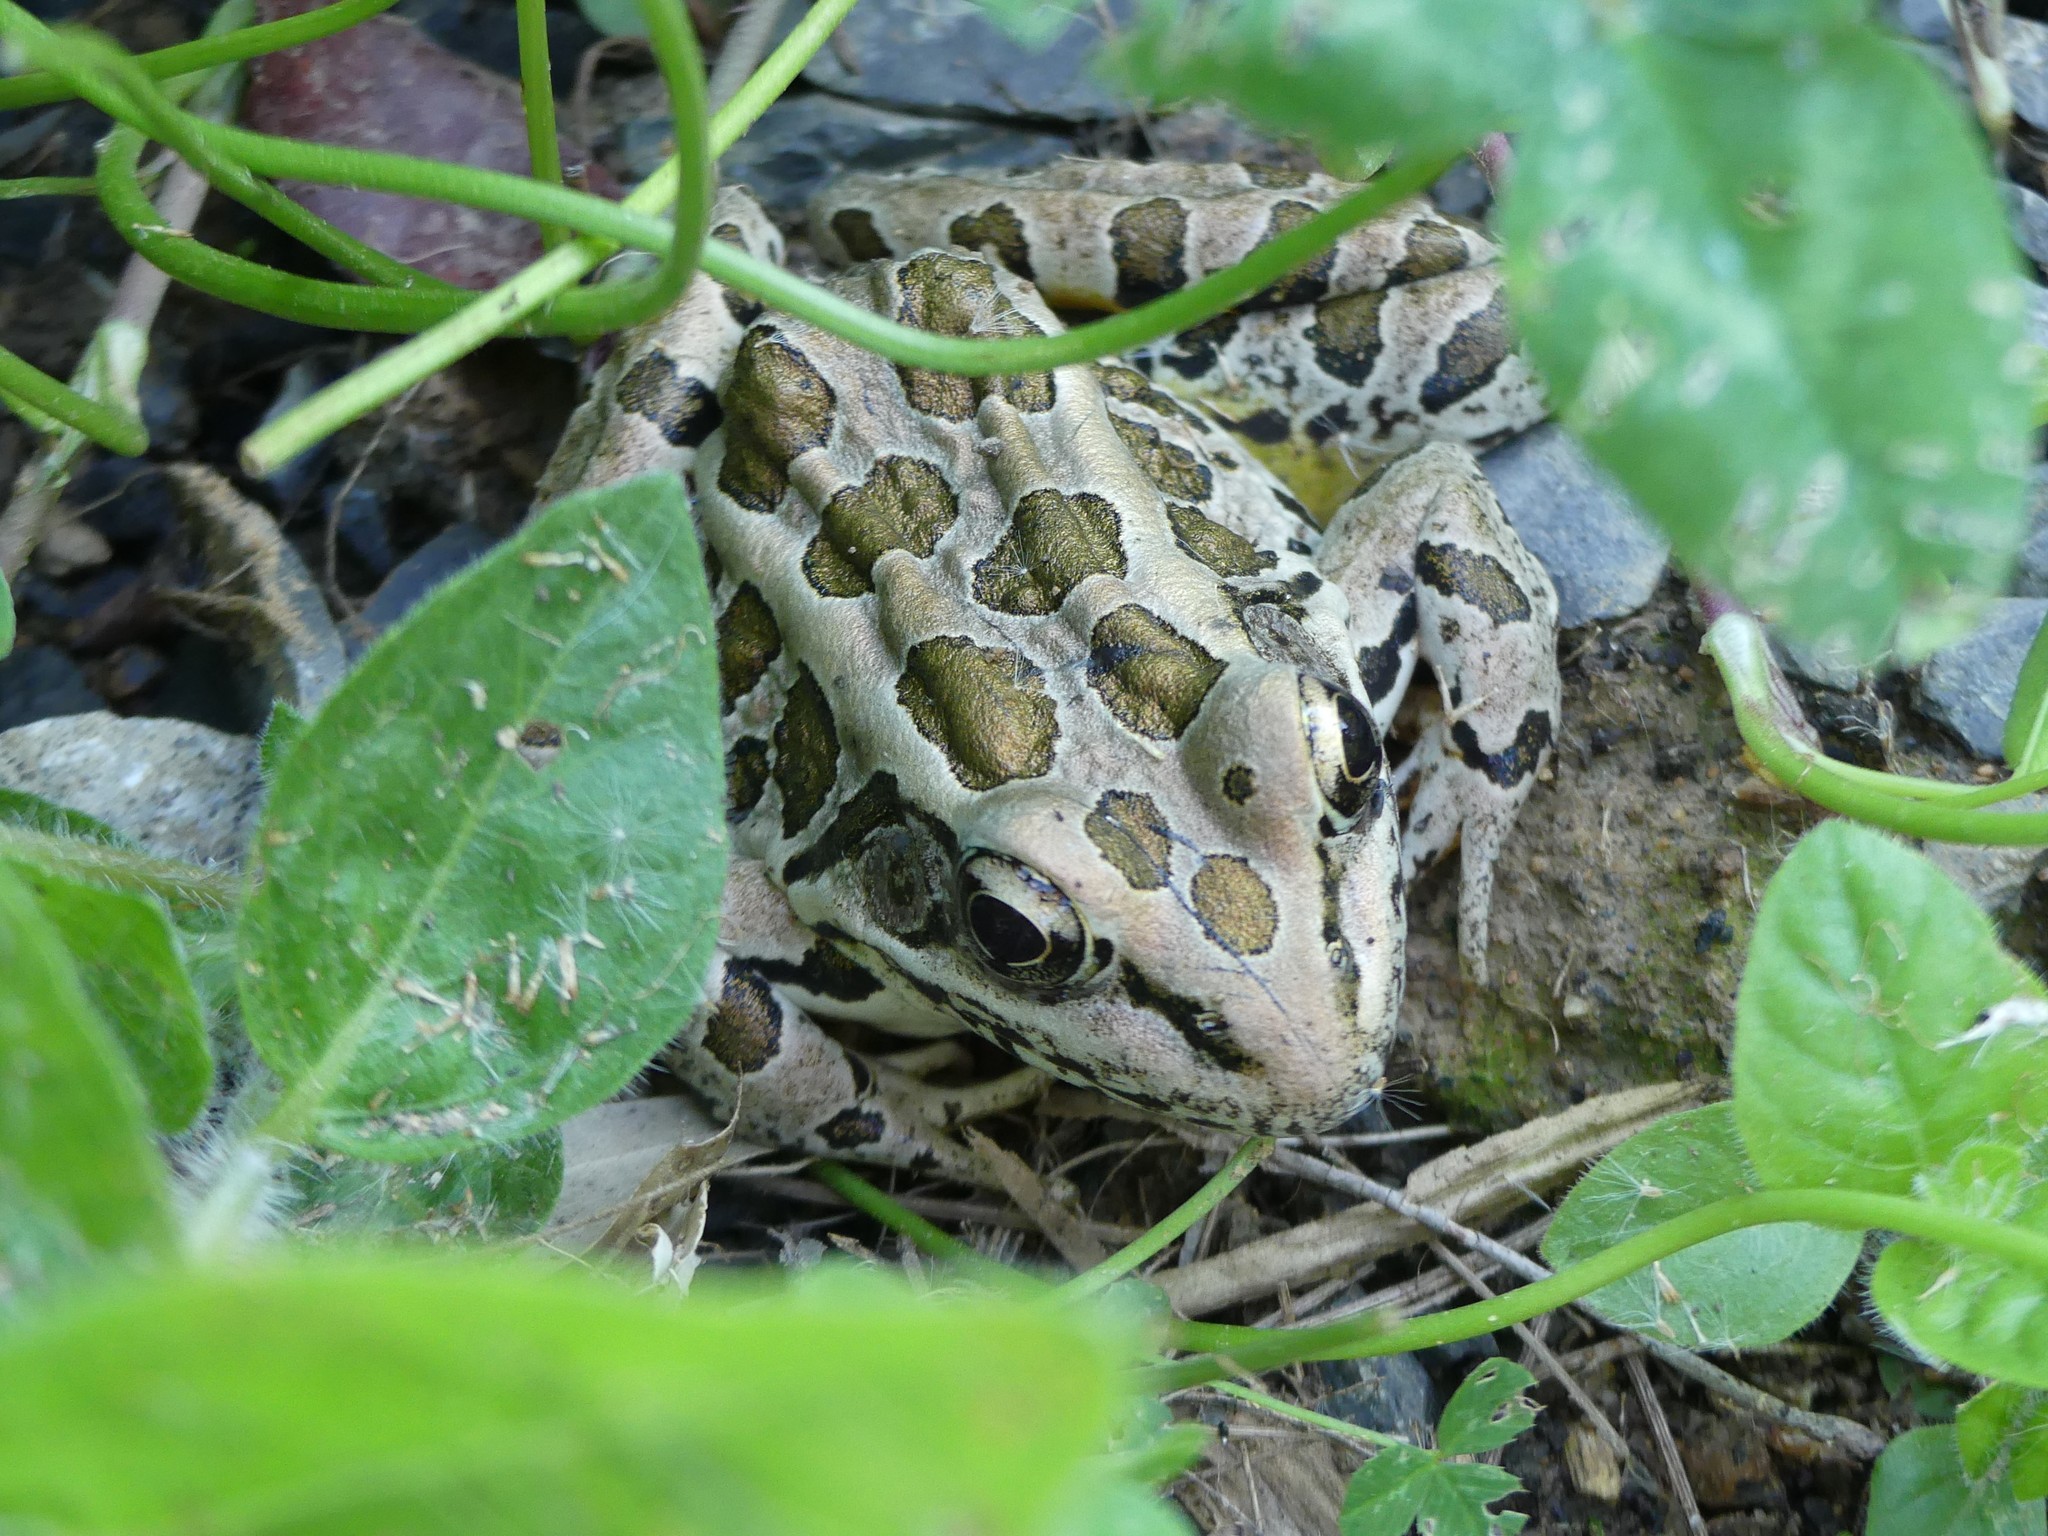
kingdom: Animalia
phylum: Chordata
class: Amphibia
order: Anura
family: Ranidae
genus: Lithobates
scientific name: Lithobates palustris
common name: Pickerel frog
